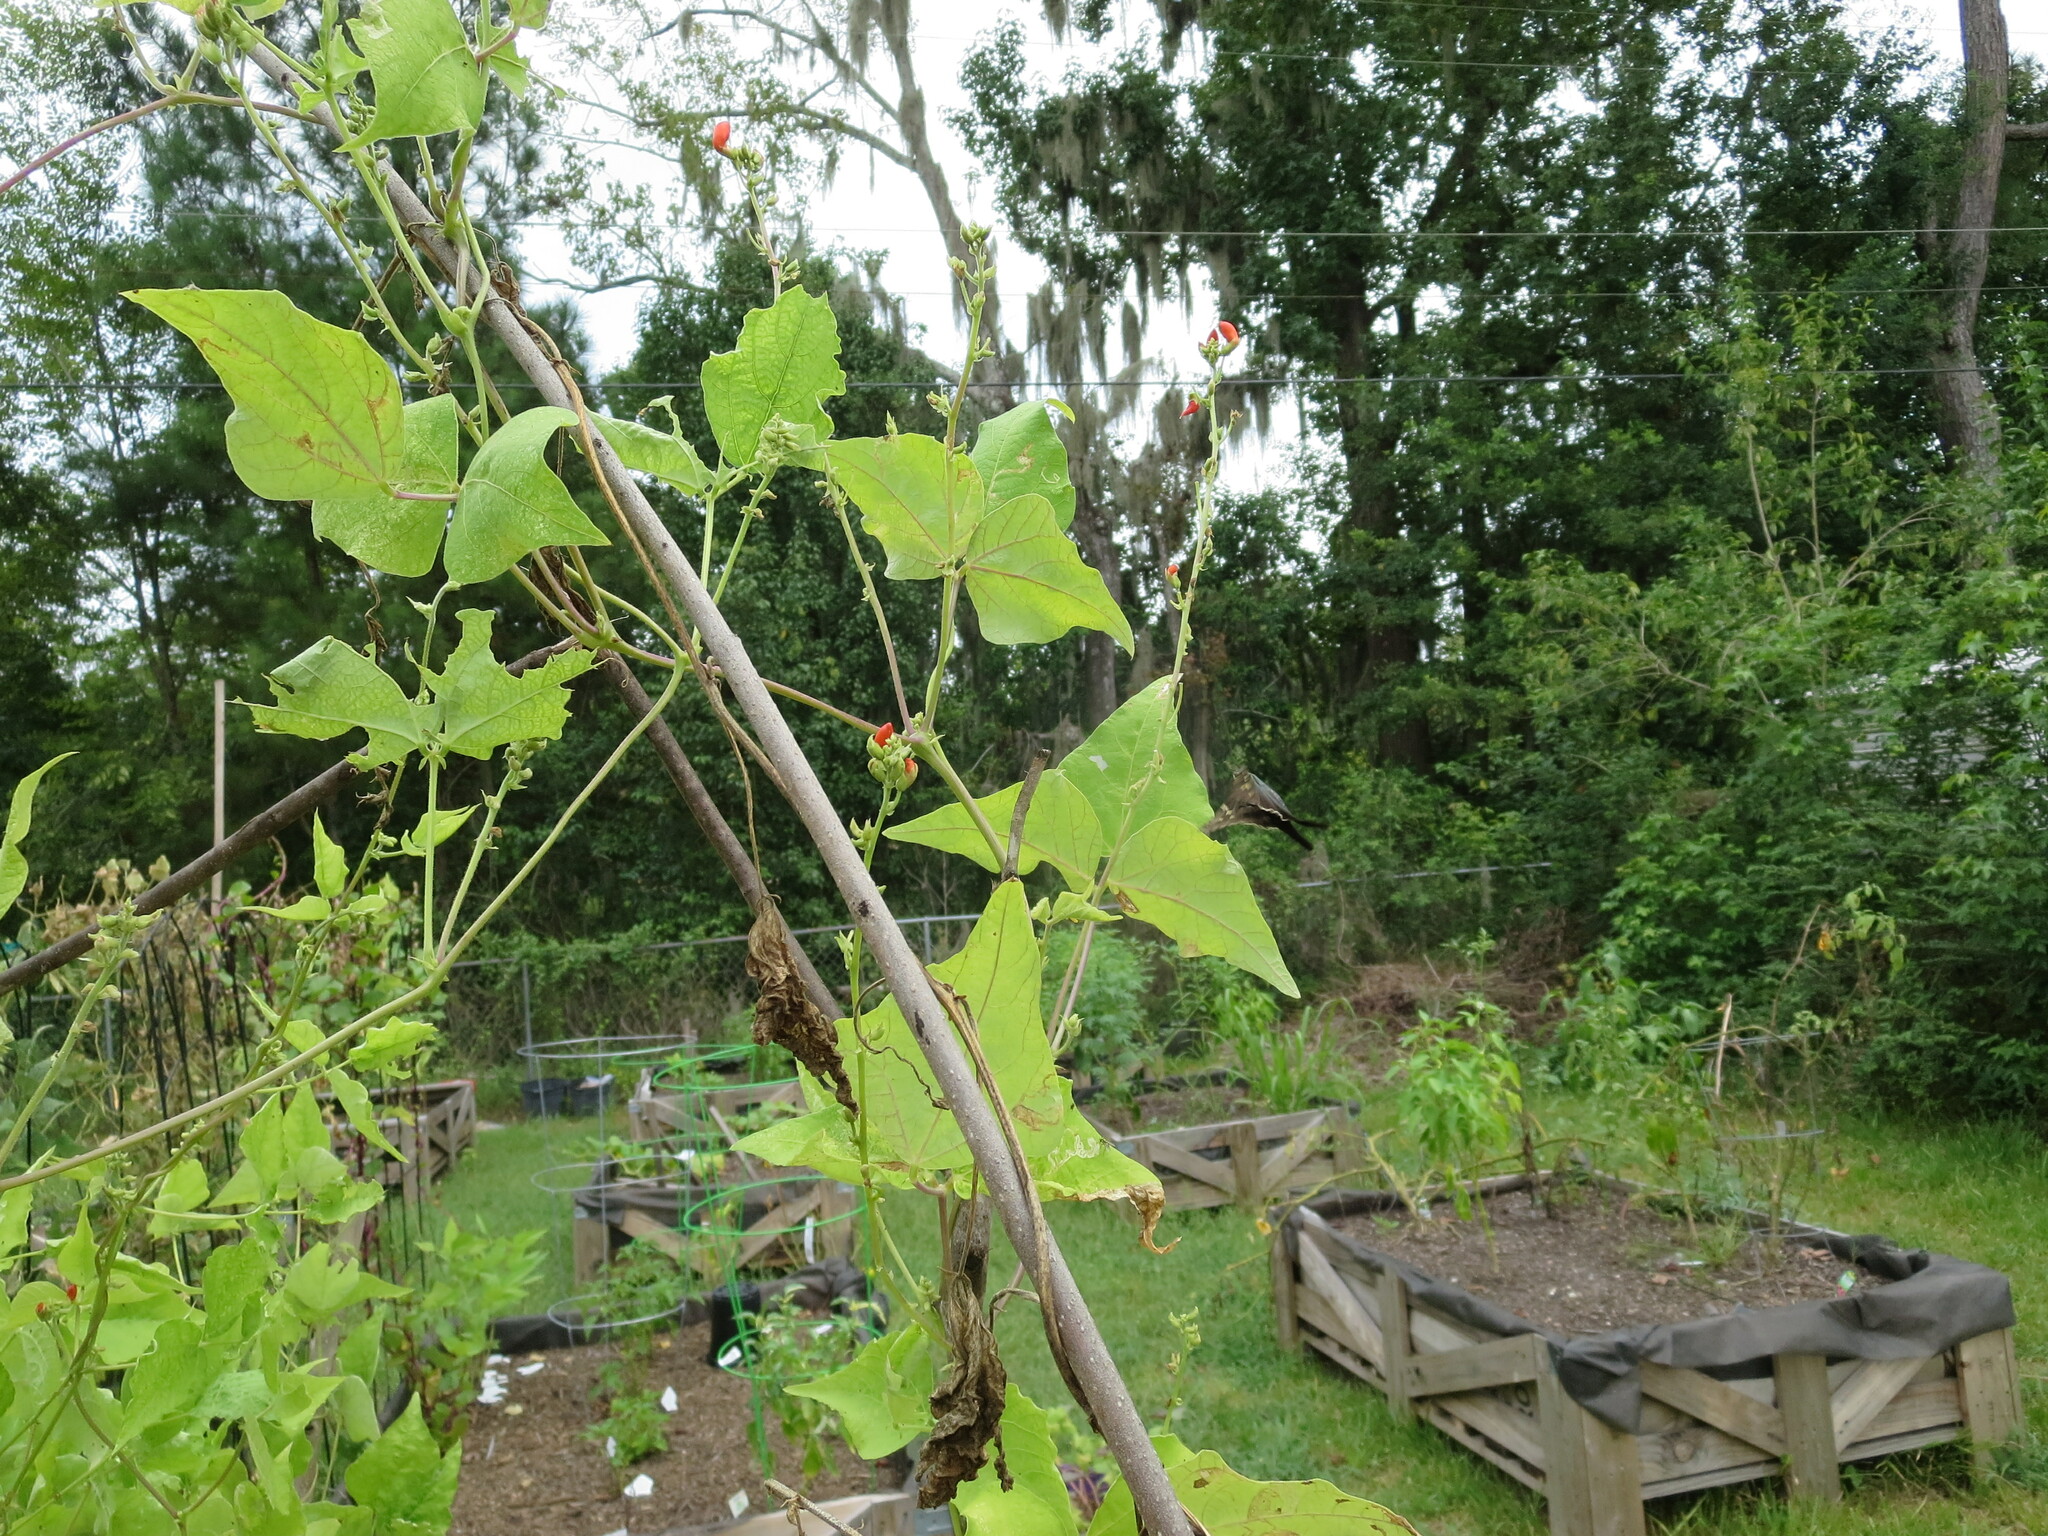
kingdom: Animalia
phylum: Arthropoda
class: Insecta
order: Lepidoptera
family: Hesperiidae
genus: Urbanus
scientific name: Urbanus proteus
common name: Long-tailed skipper
